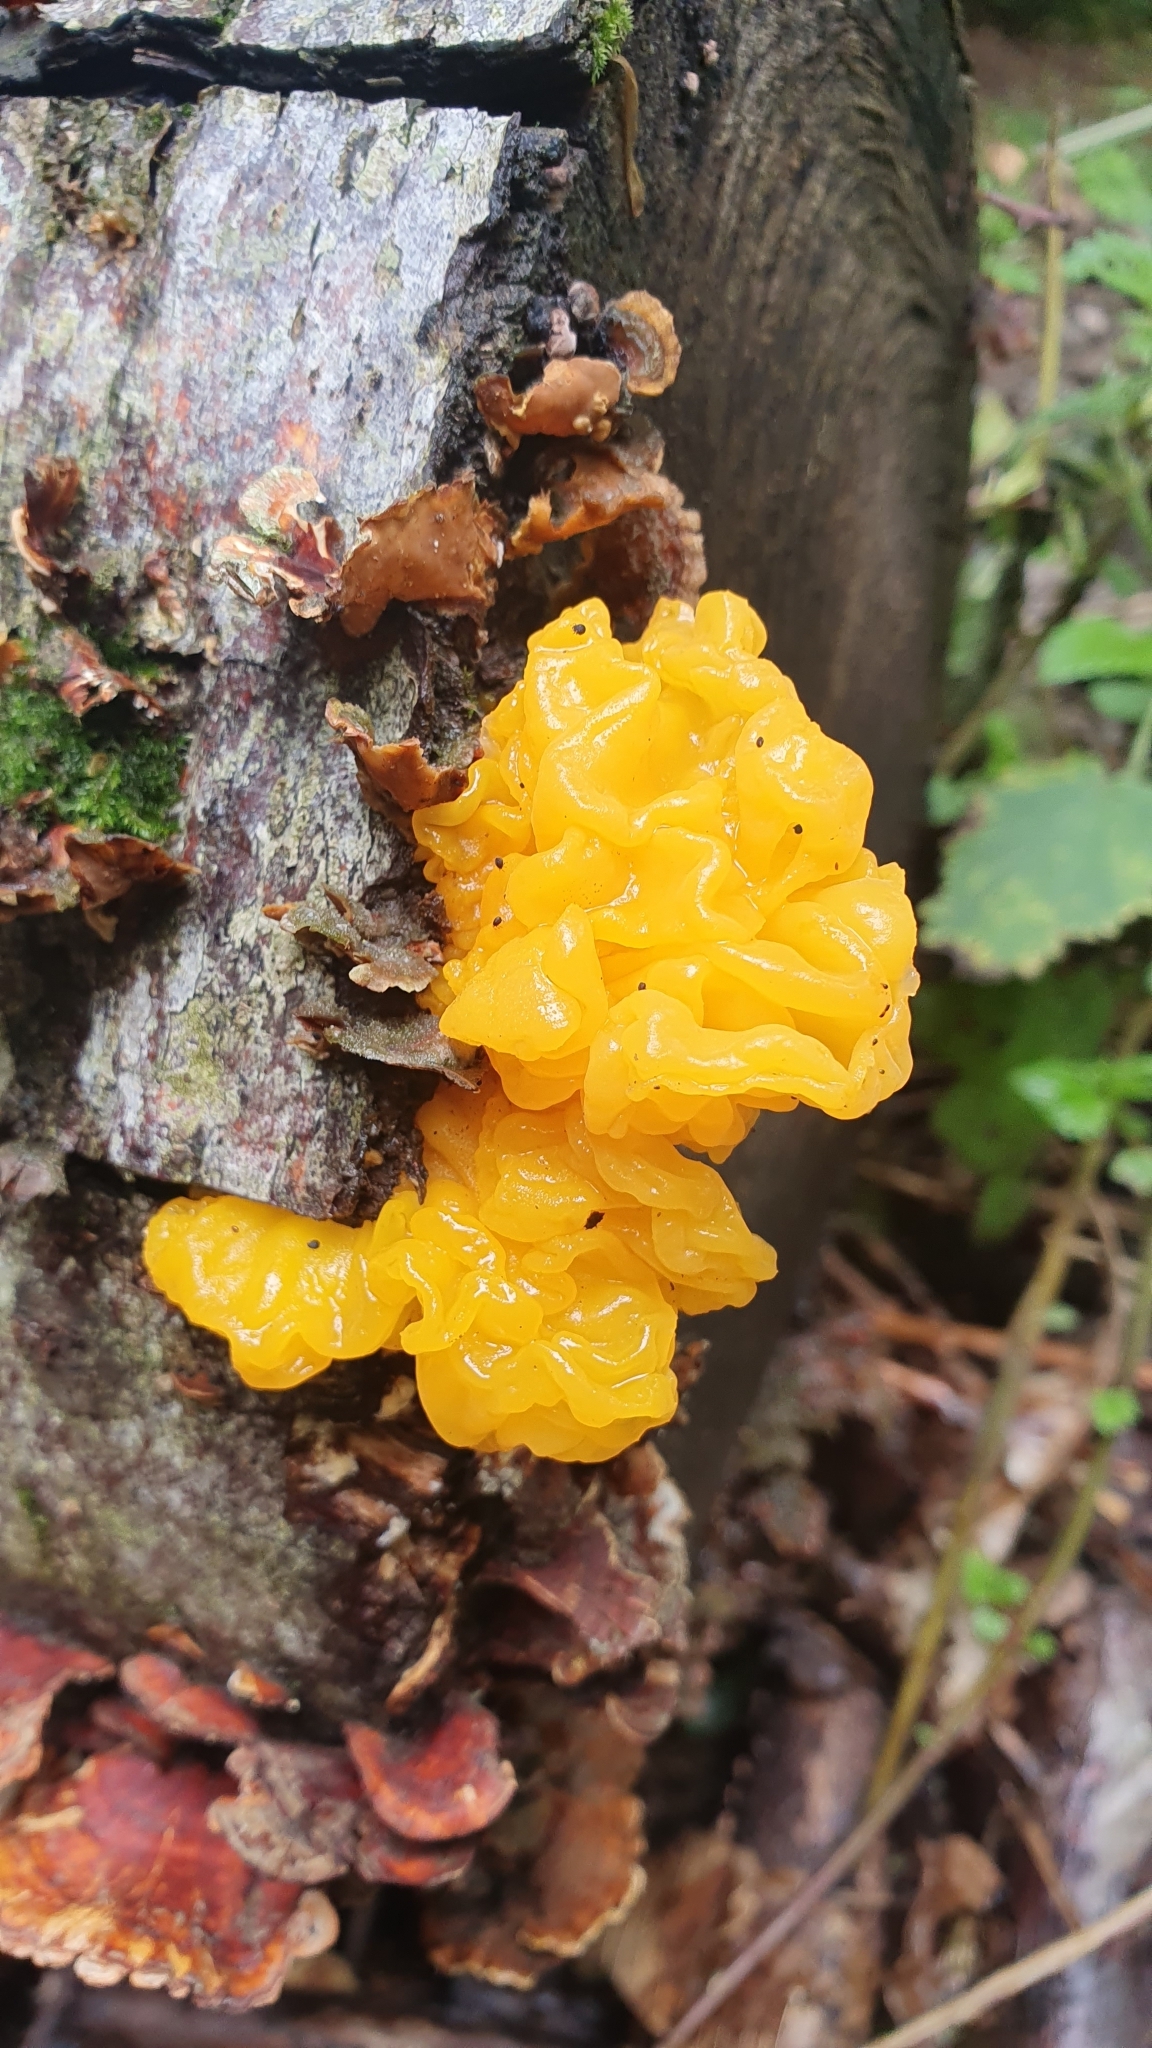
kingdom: Fungi
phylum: Basidiomycota
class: Tremellomycetes
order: Tremellales
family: Naemateliaceae
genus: Naematelia
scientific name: Naematelia aurantia
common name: Golden ear
